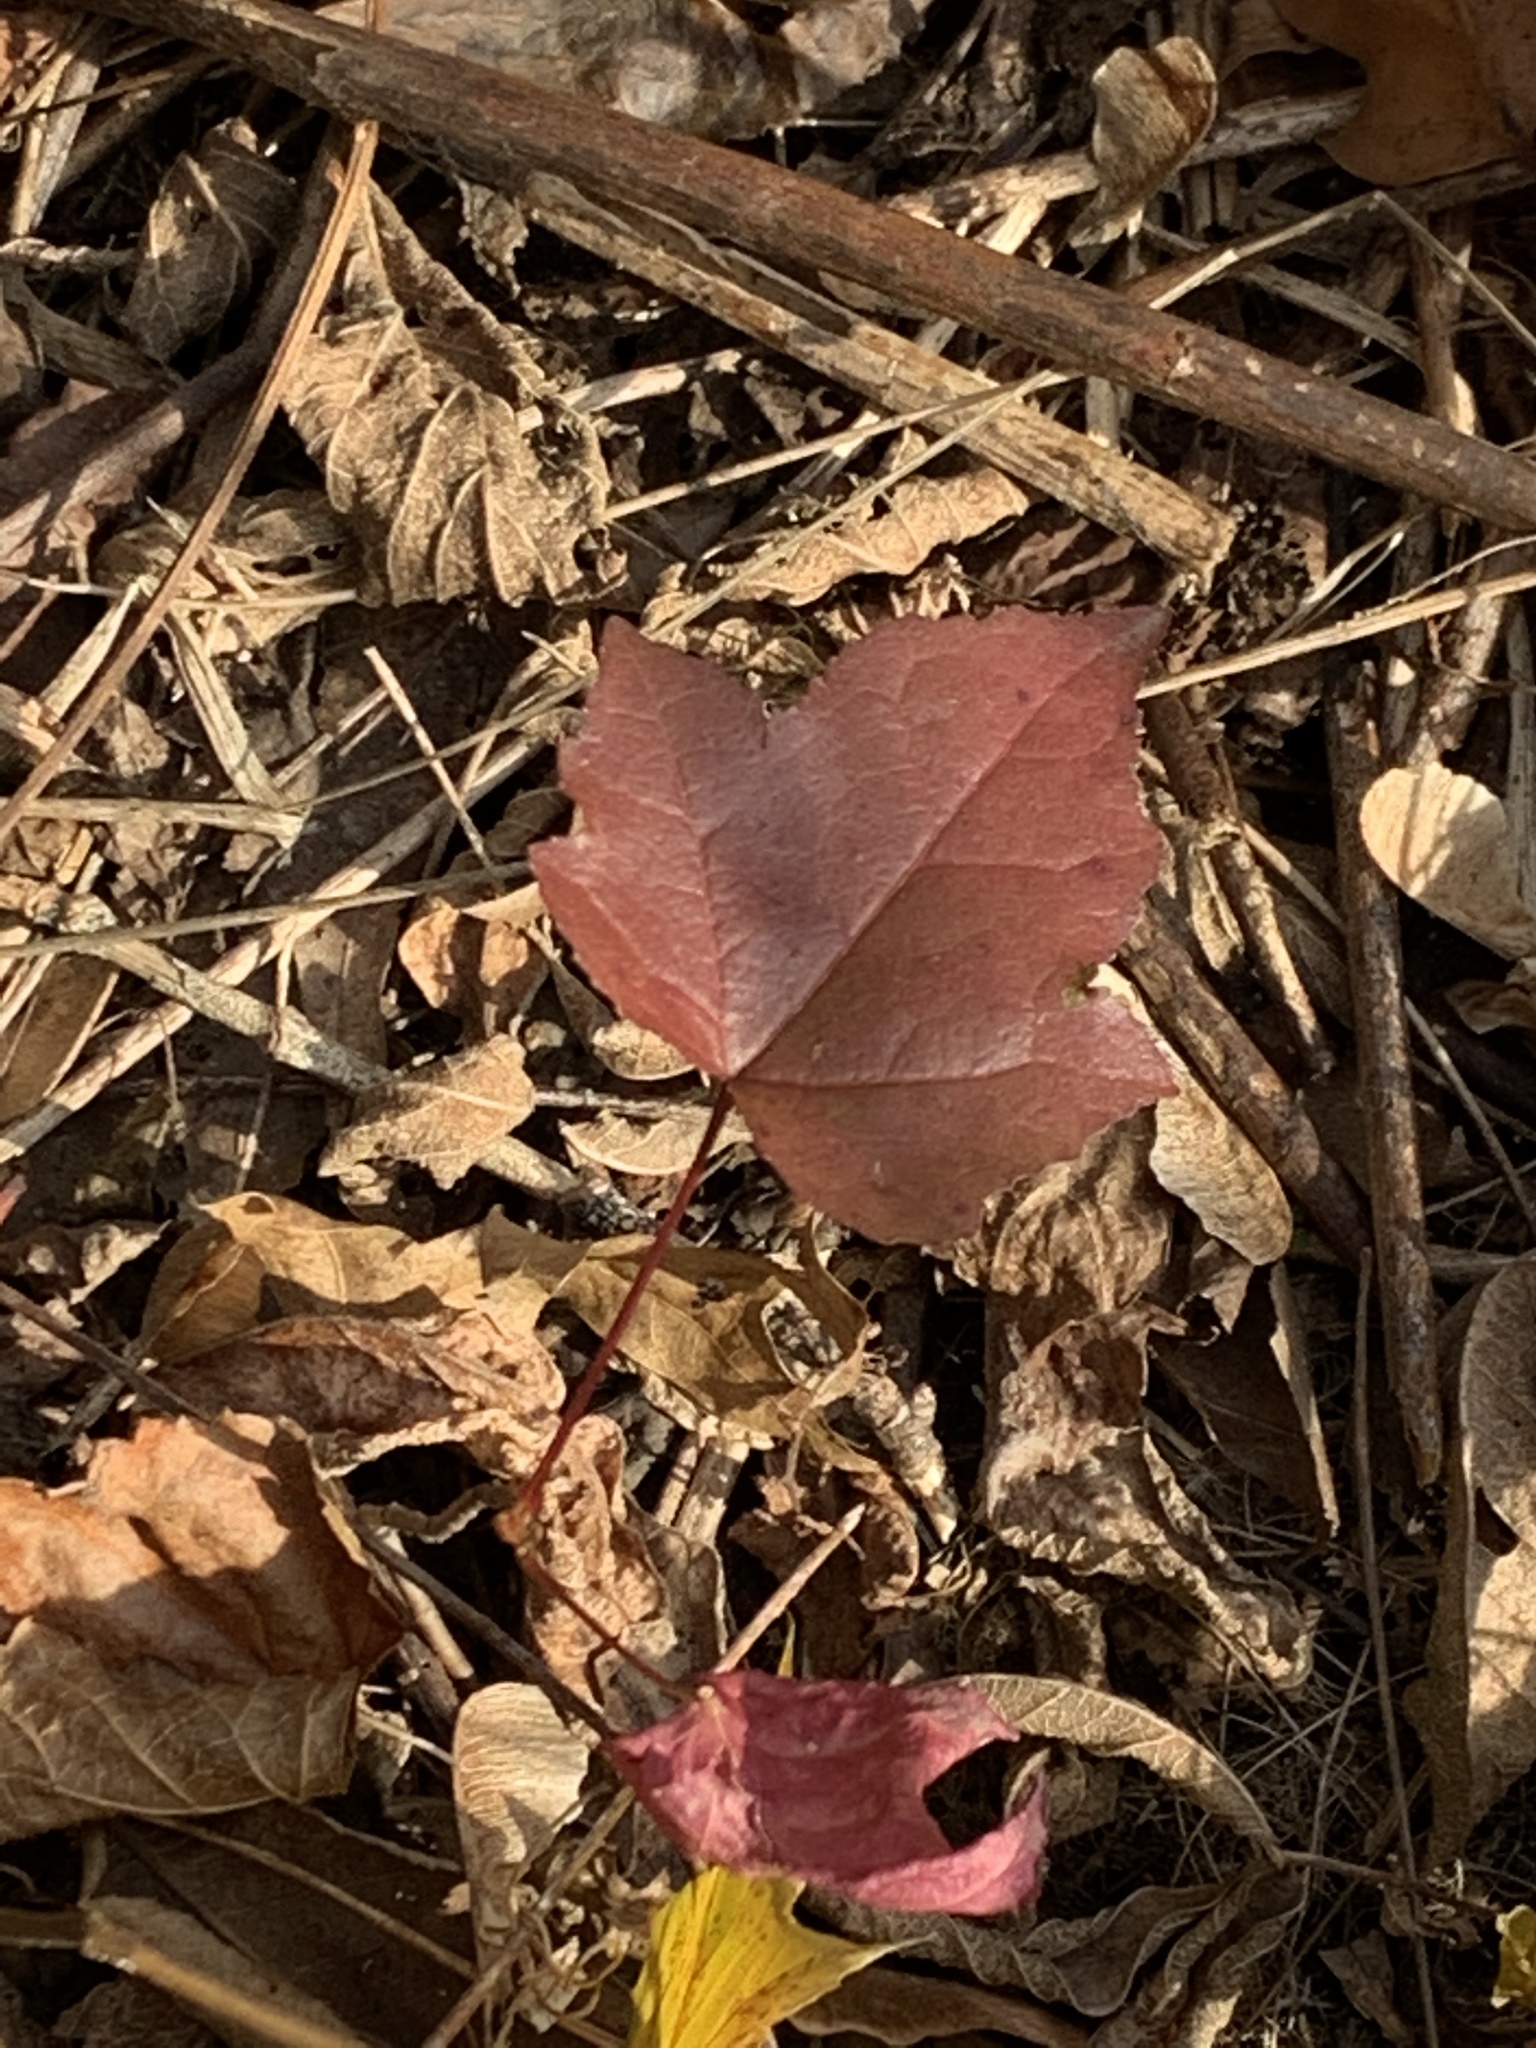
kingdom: Plantae
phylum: Tracheophyta
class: Magnoliopsida
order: Sapindales
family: Sapindaceae
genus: Acer
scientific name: Acer rubrum
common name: Red maple
